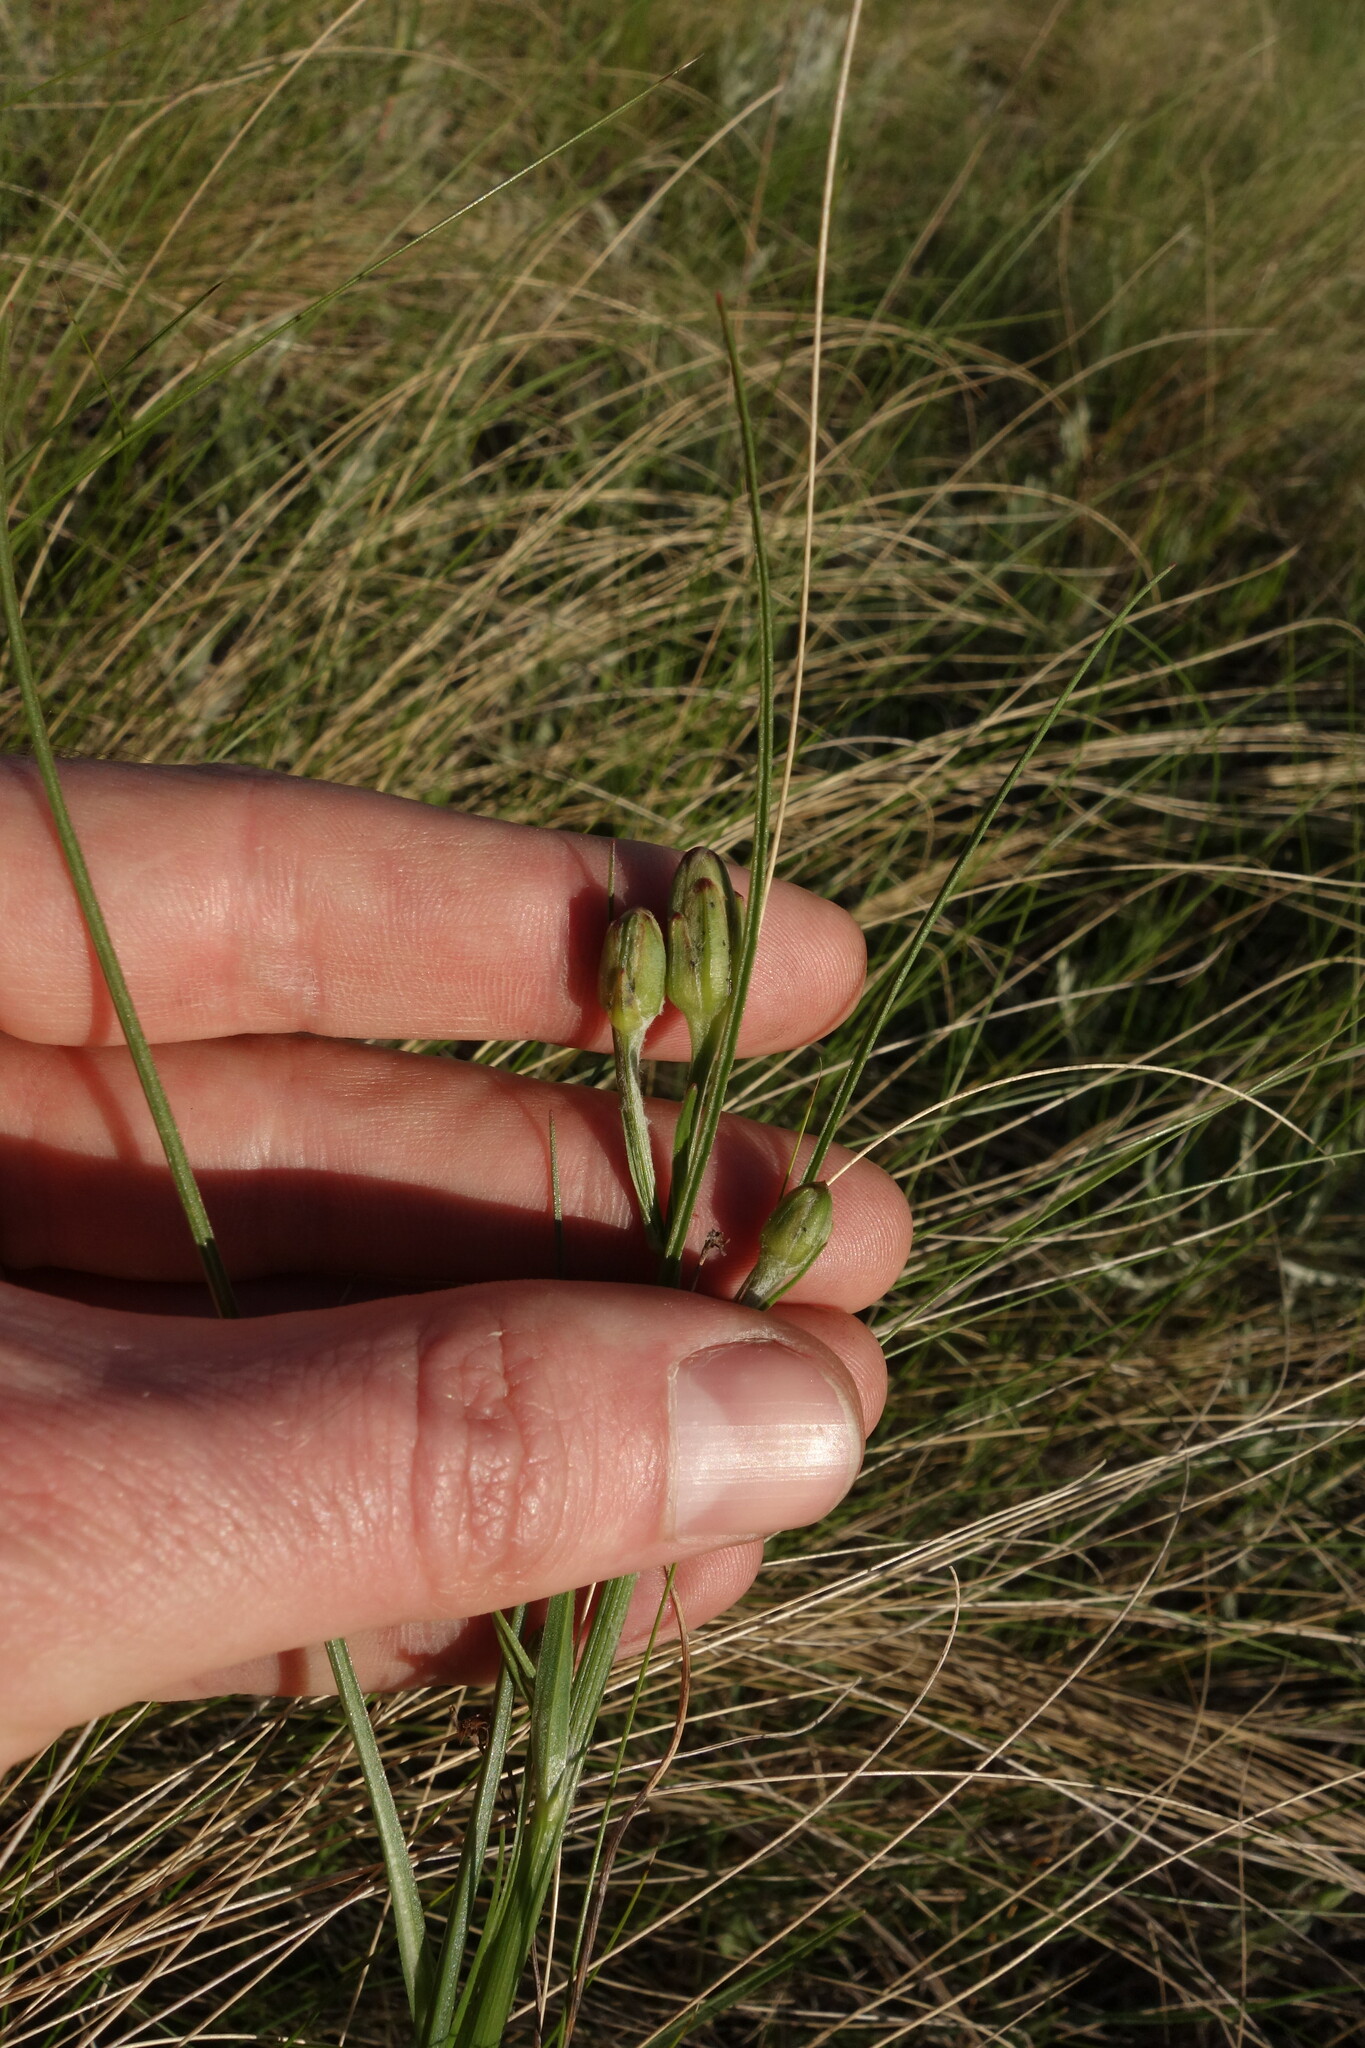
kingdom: Plantae
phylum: Tracheophyta
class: Magnoliopsida
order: Asterales
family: Asteraceae
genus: Scorzonera
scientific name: Scorzonera purpurea
